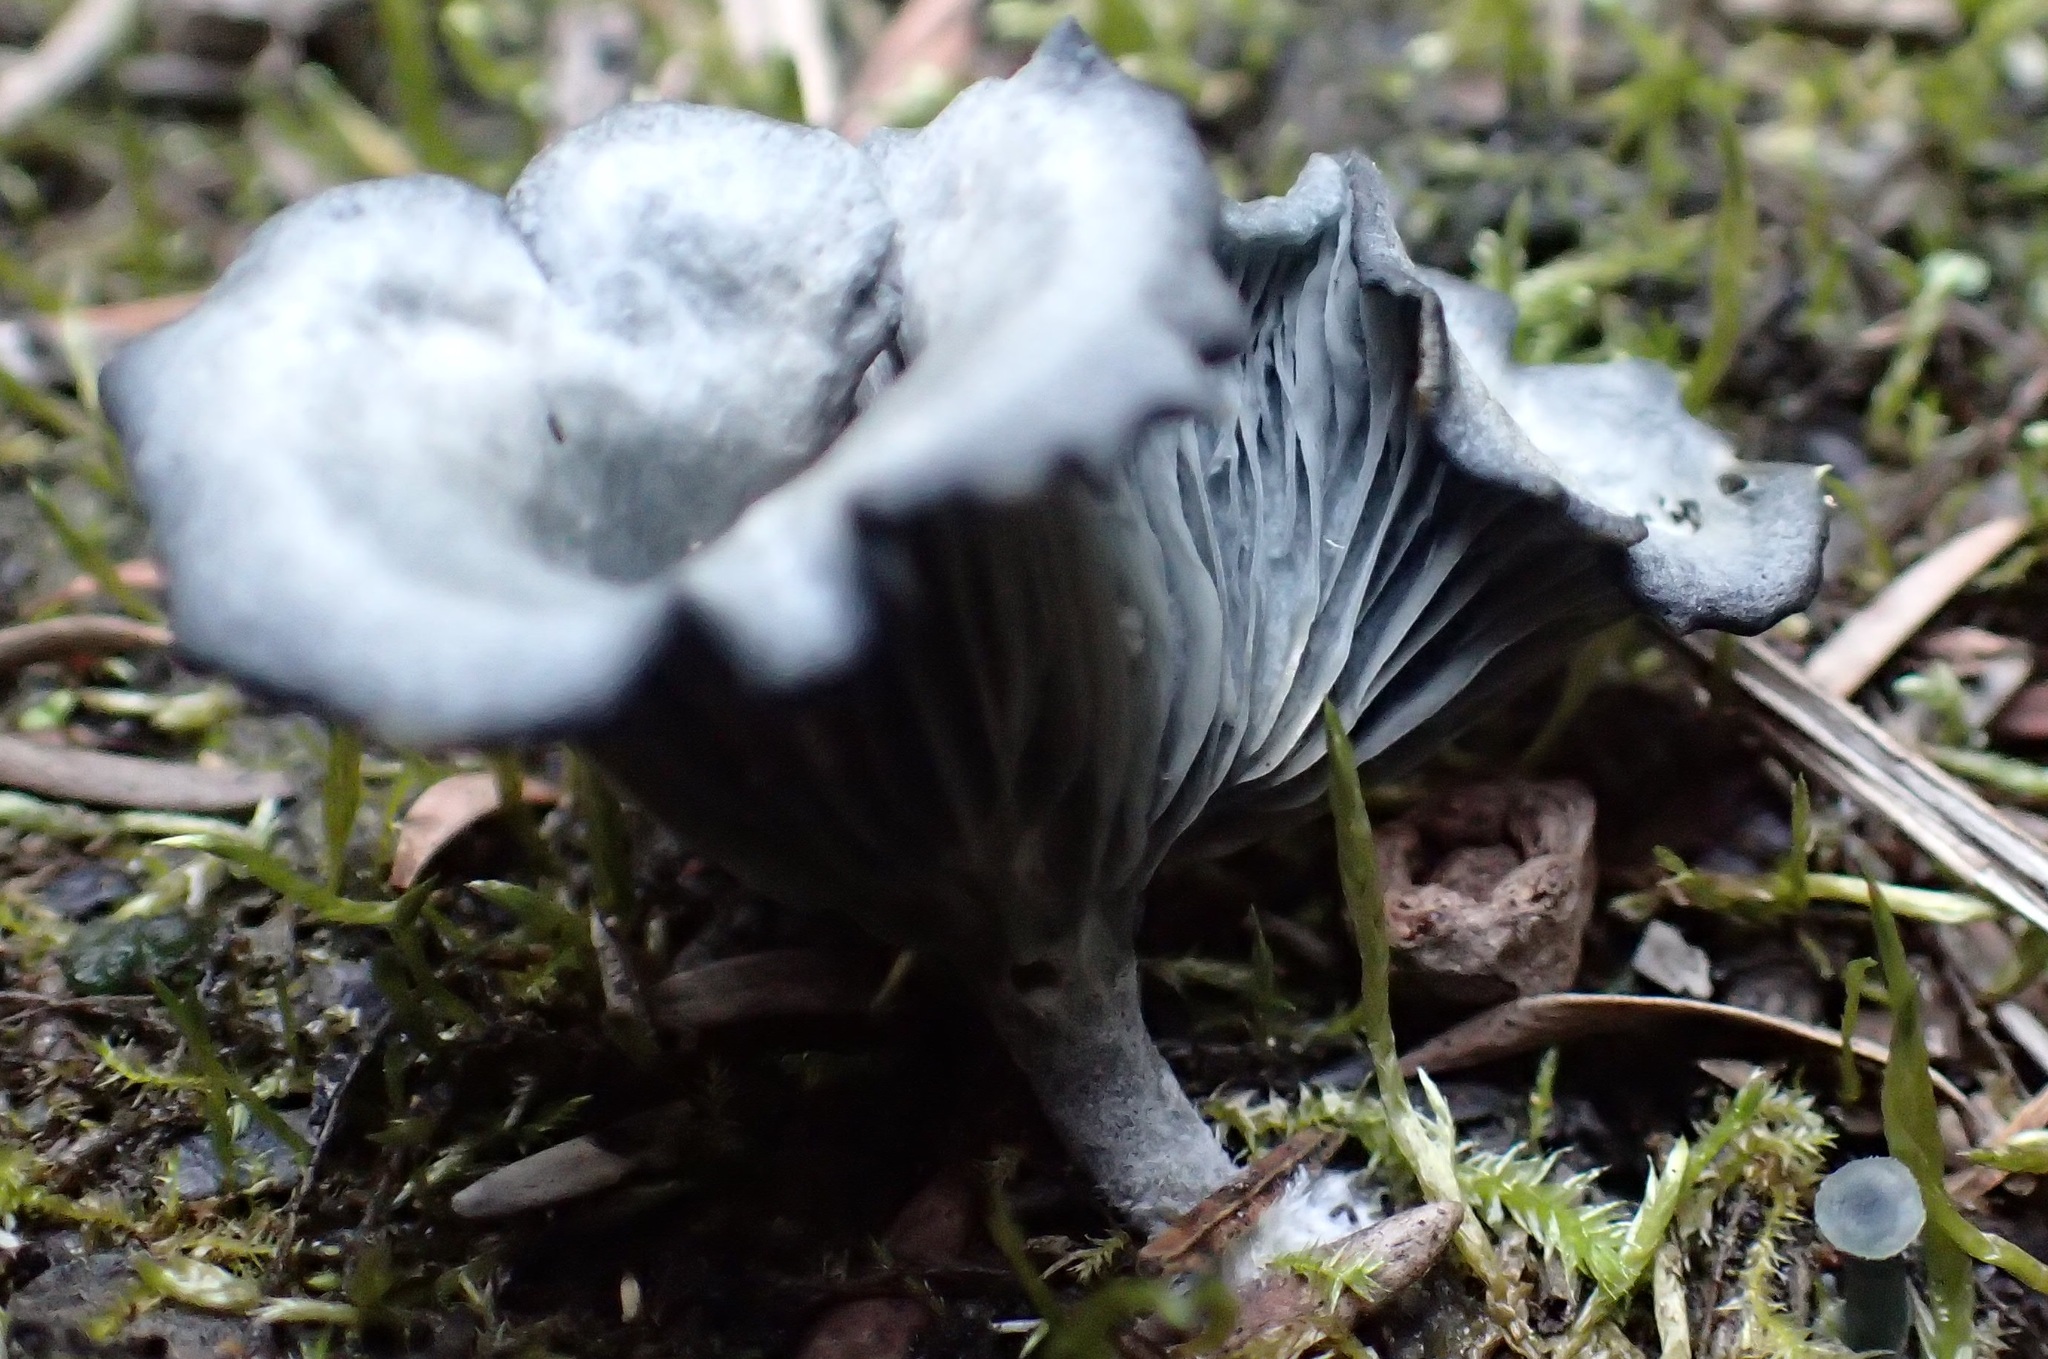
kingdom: Fungi
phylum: Basidiomycota
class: Agaricomycetes
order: Agaricales
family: Hygrophoraceae
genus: Arrhenia
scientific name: Arrhenia chlorocyanea
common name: Verdigris navel
